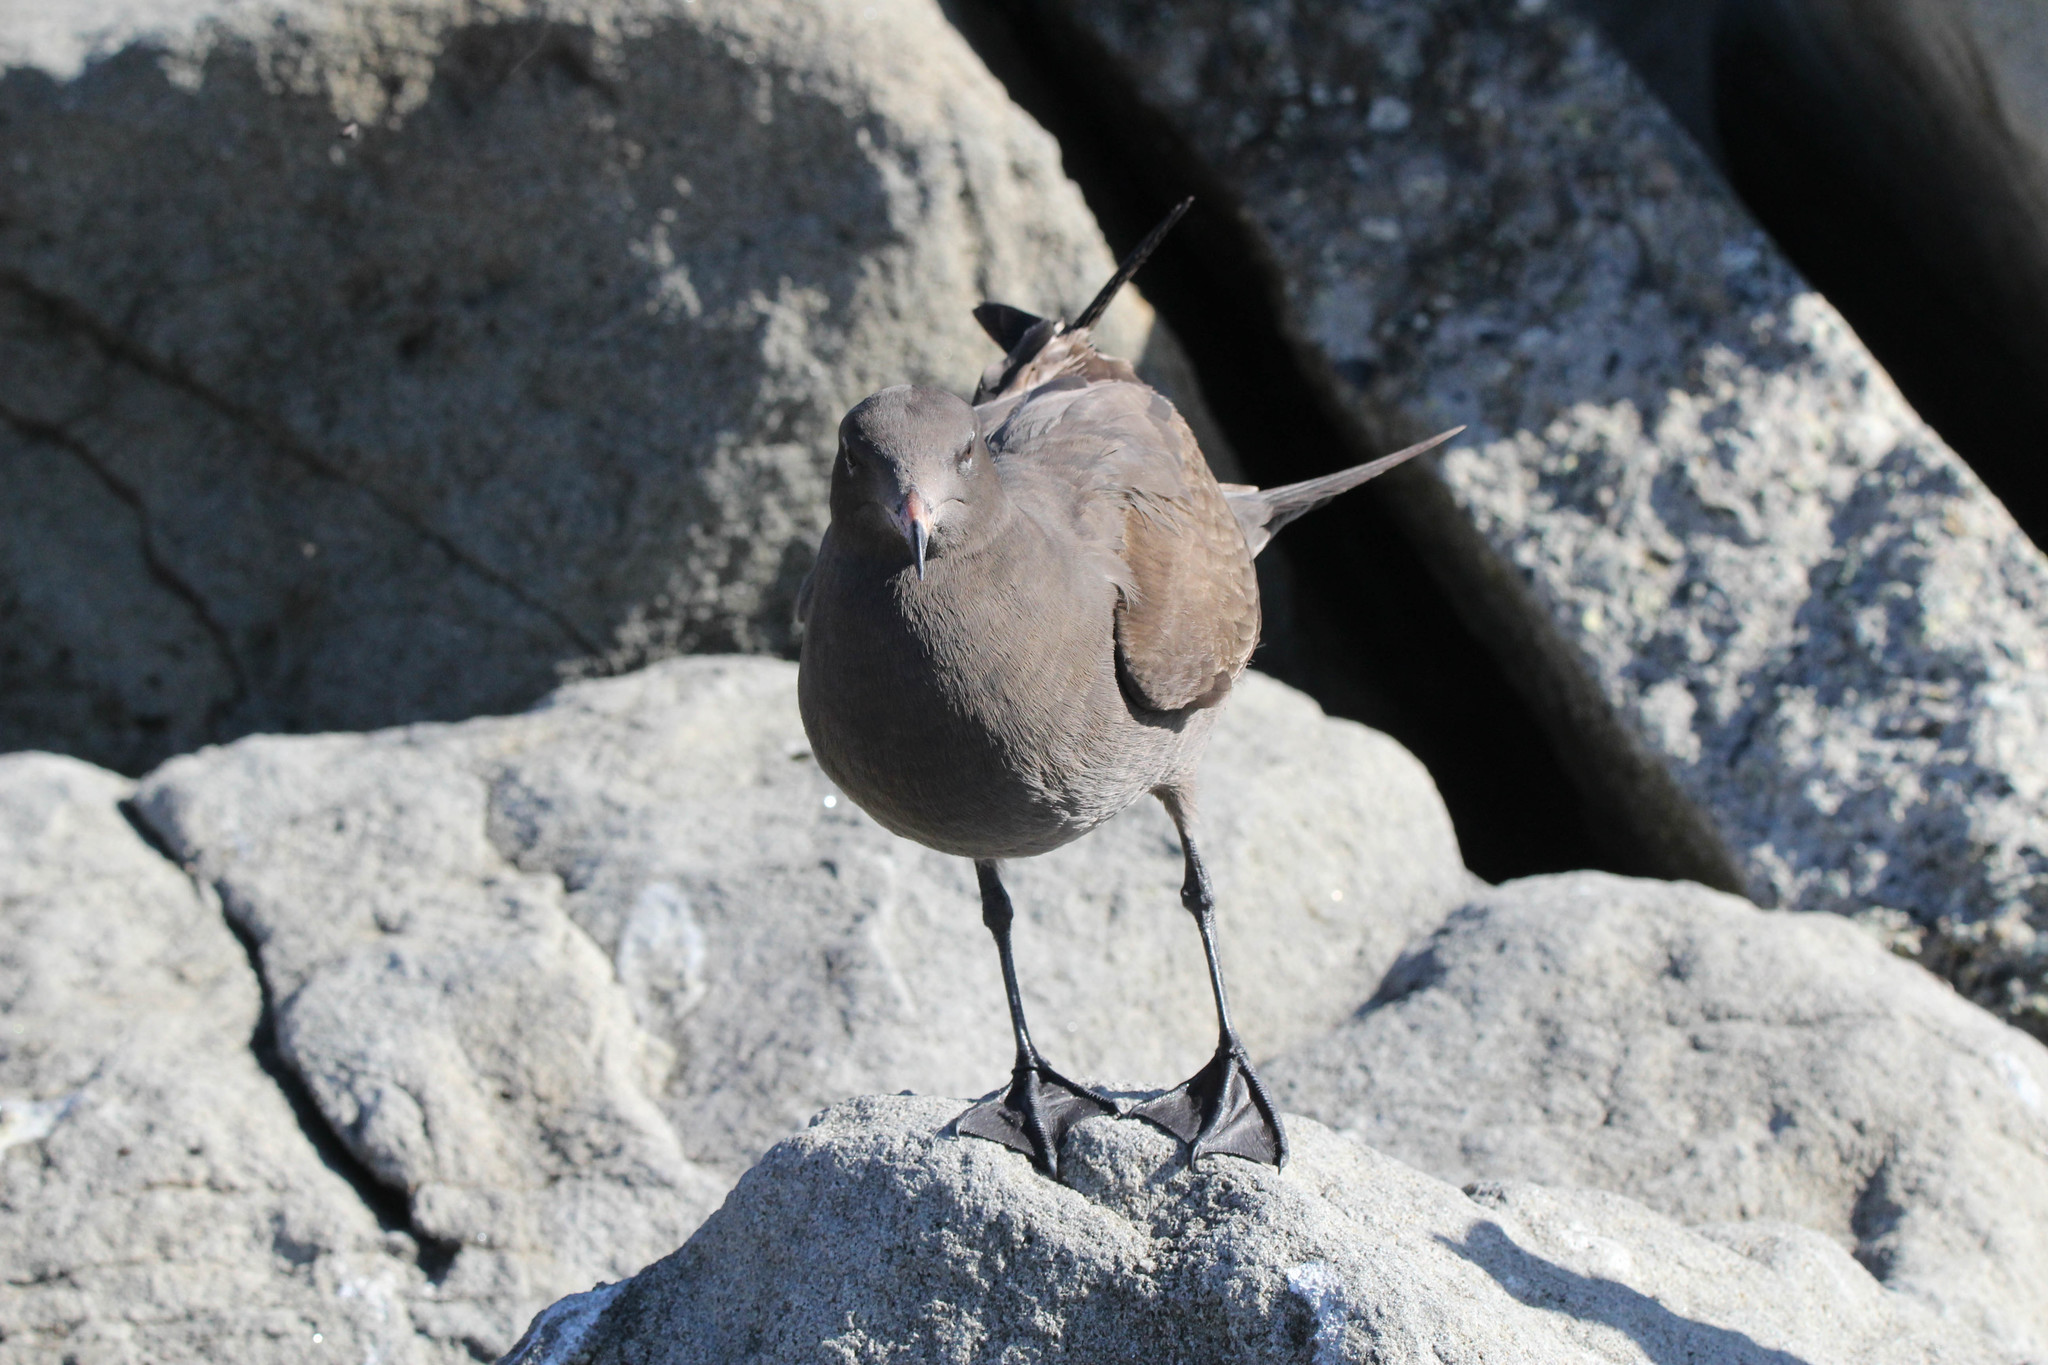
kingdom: Animalia
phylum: Chordata
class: Aves
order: Charadriiformes
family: Laridae
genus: Larus
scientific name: Larus heermanni
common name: Heermann's gull
